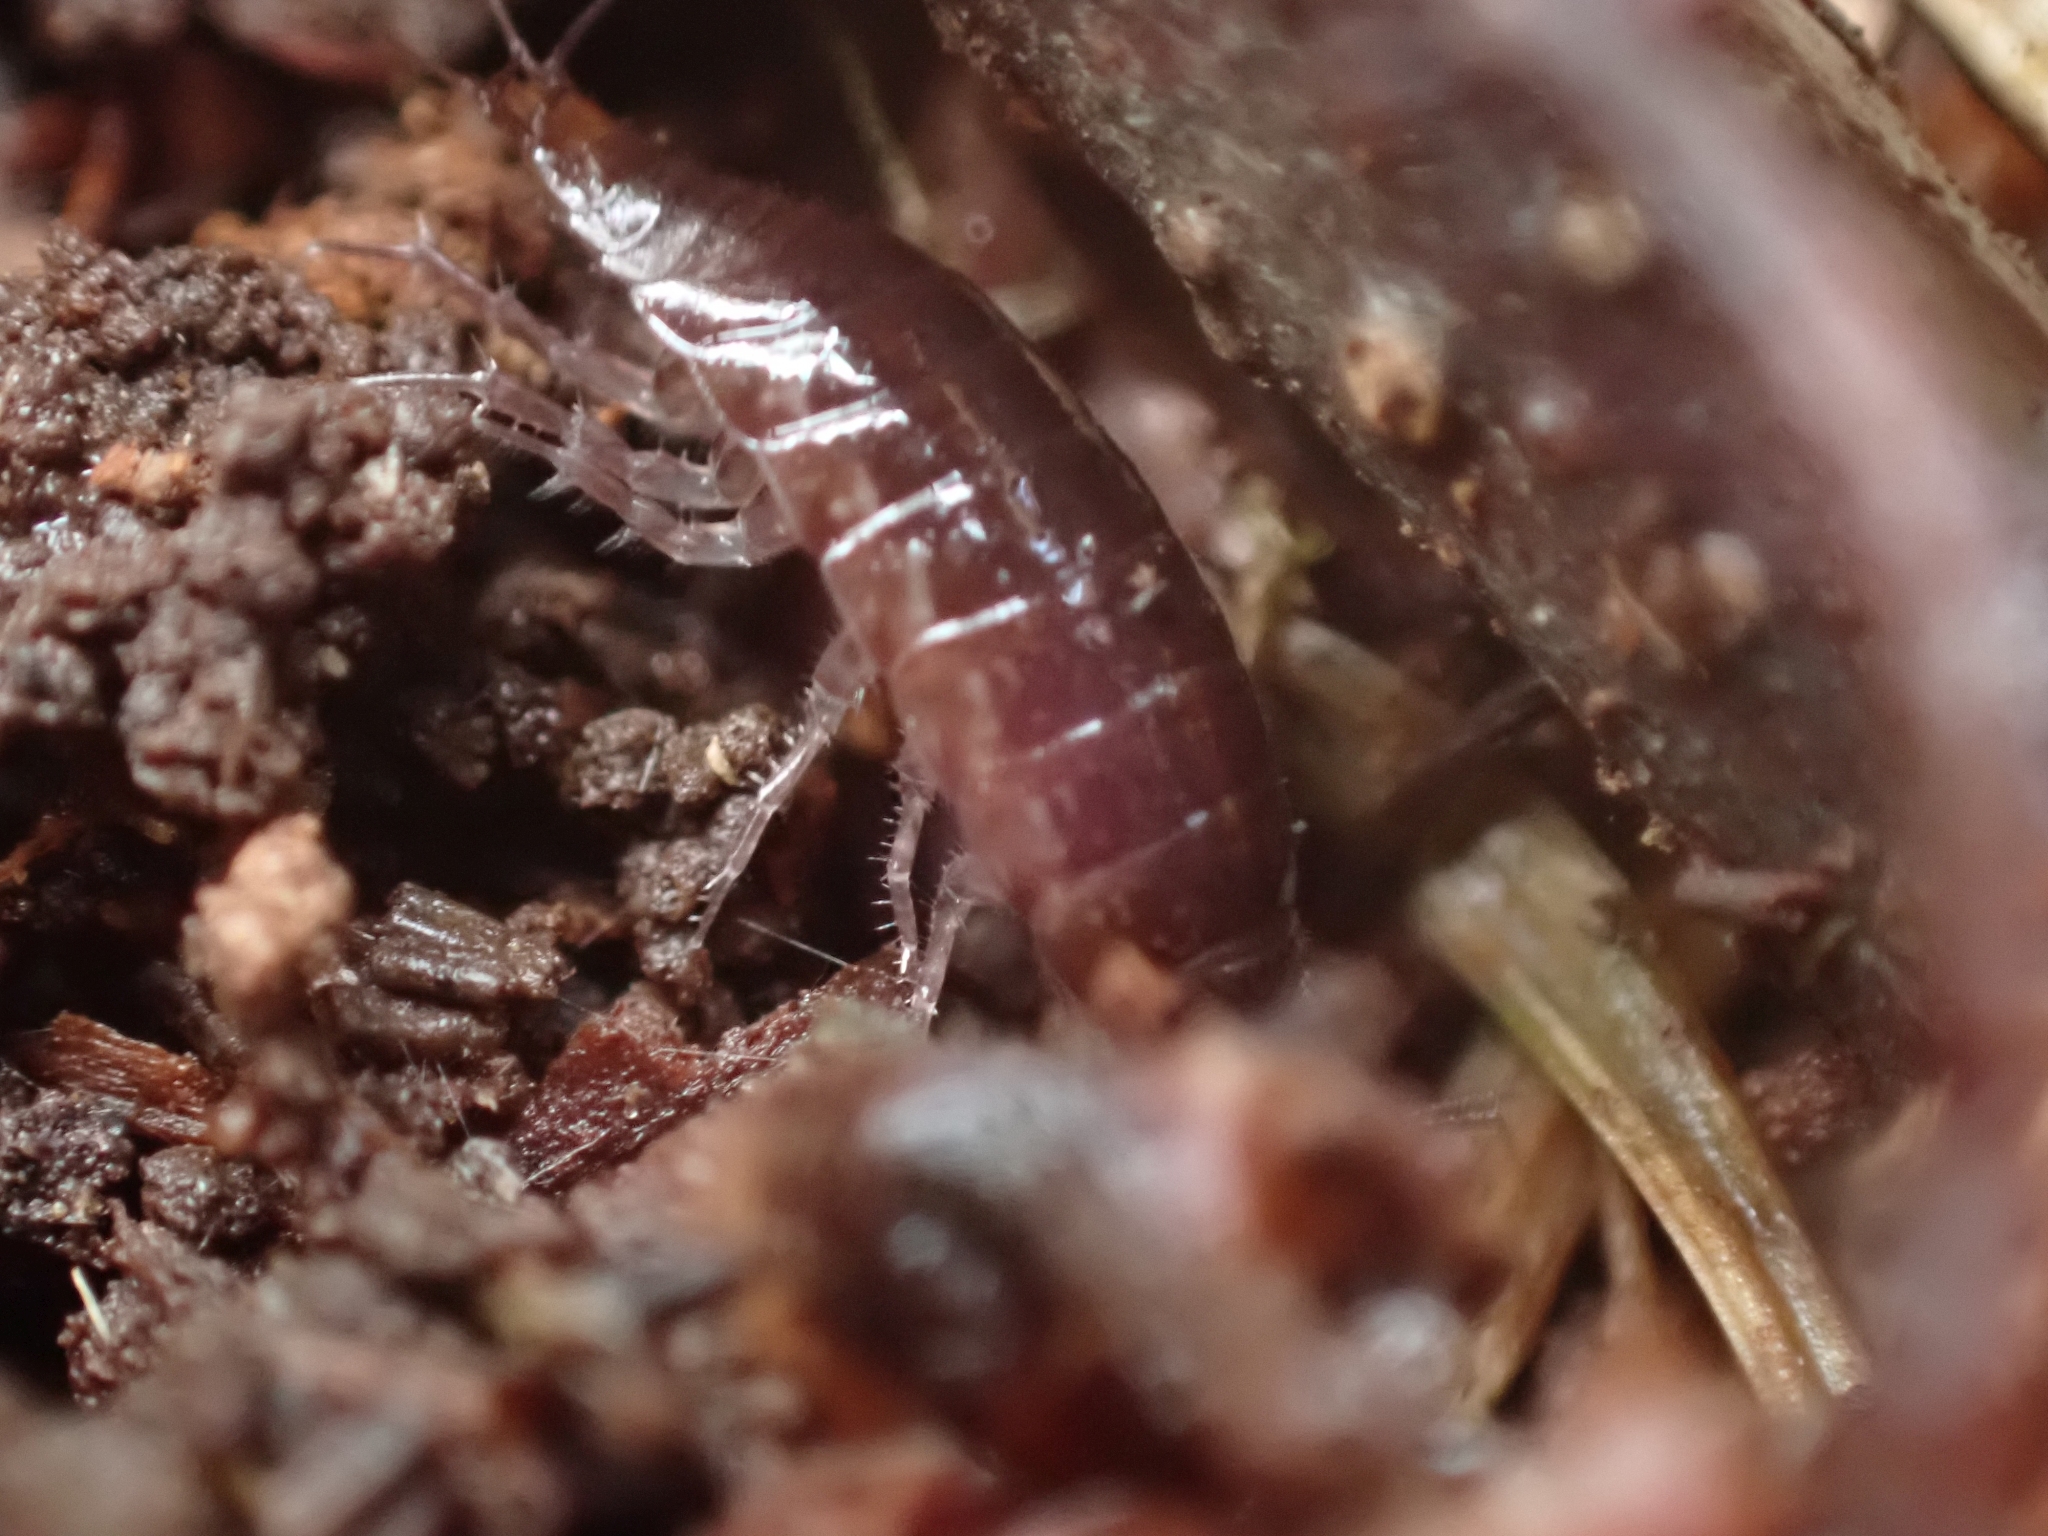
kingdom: Animalia
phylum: Arthropoda
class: Malacostraca
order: Isopoda
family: Ligiidae
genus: Ligidium
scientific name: Ligidium gracile
